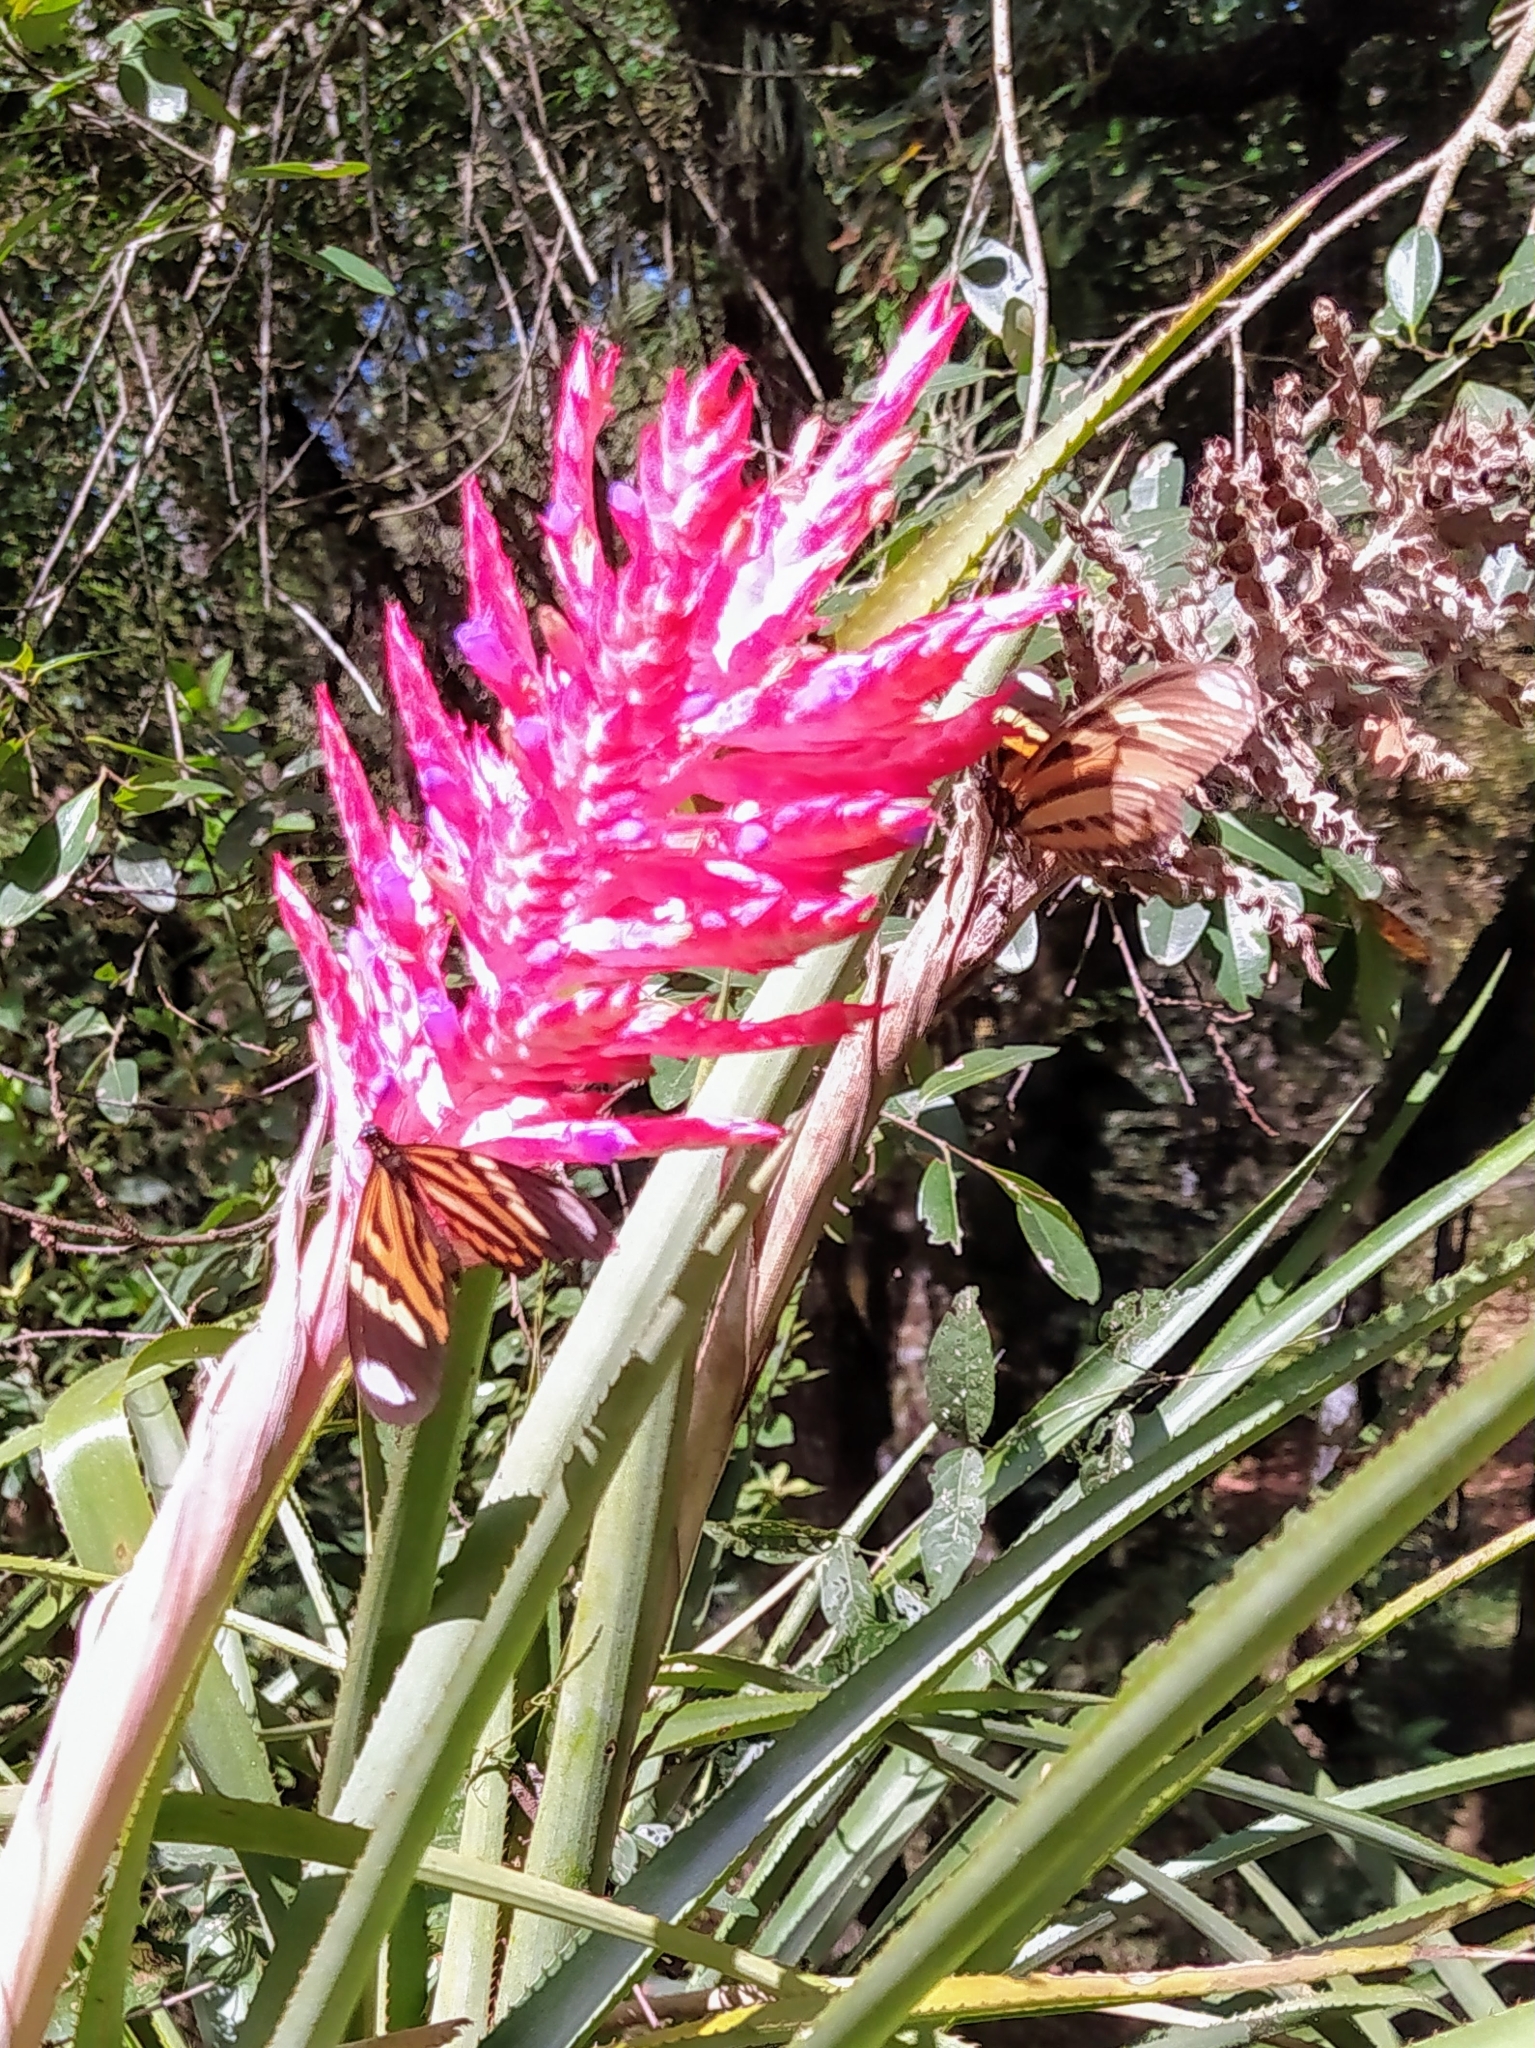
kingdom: Animalia
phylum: Arthropoda
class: Insecta
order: Lepidoptera
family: Nymphalidae
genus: Heliconius
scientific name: Heliconius ethilla
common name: Ethilia longwing
